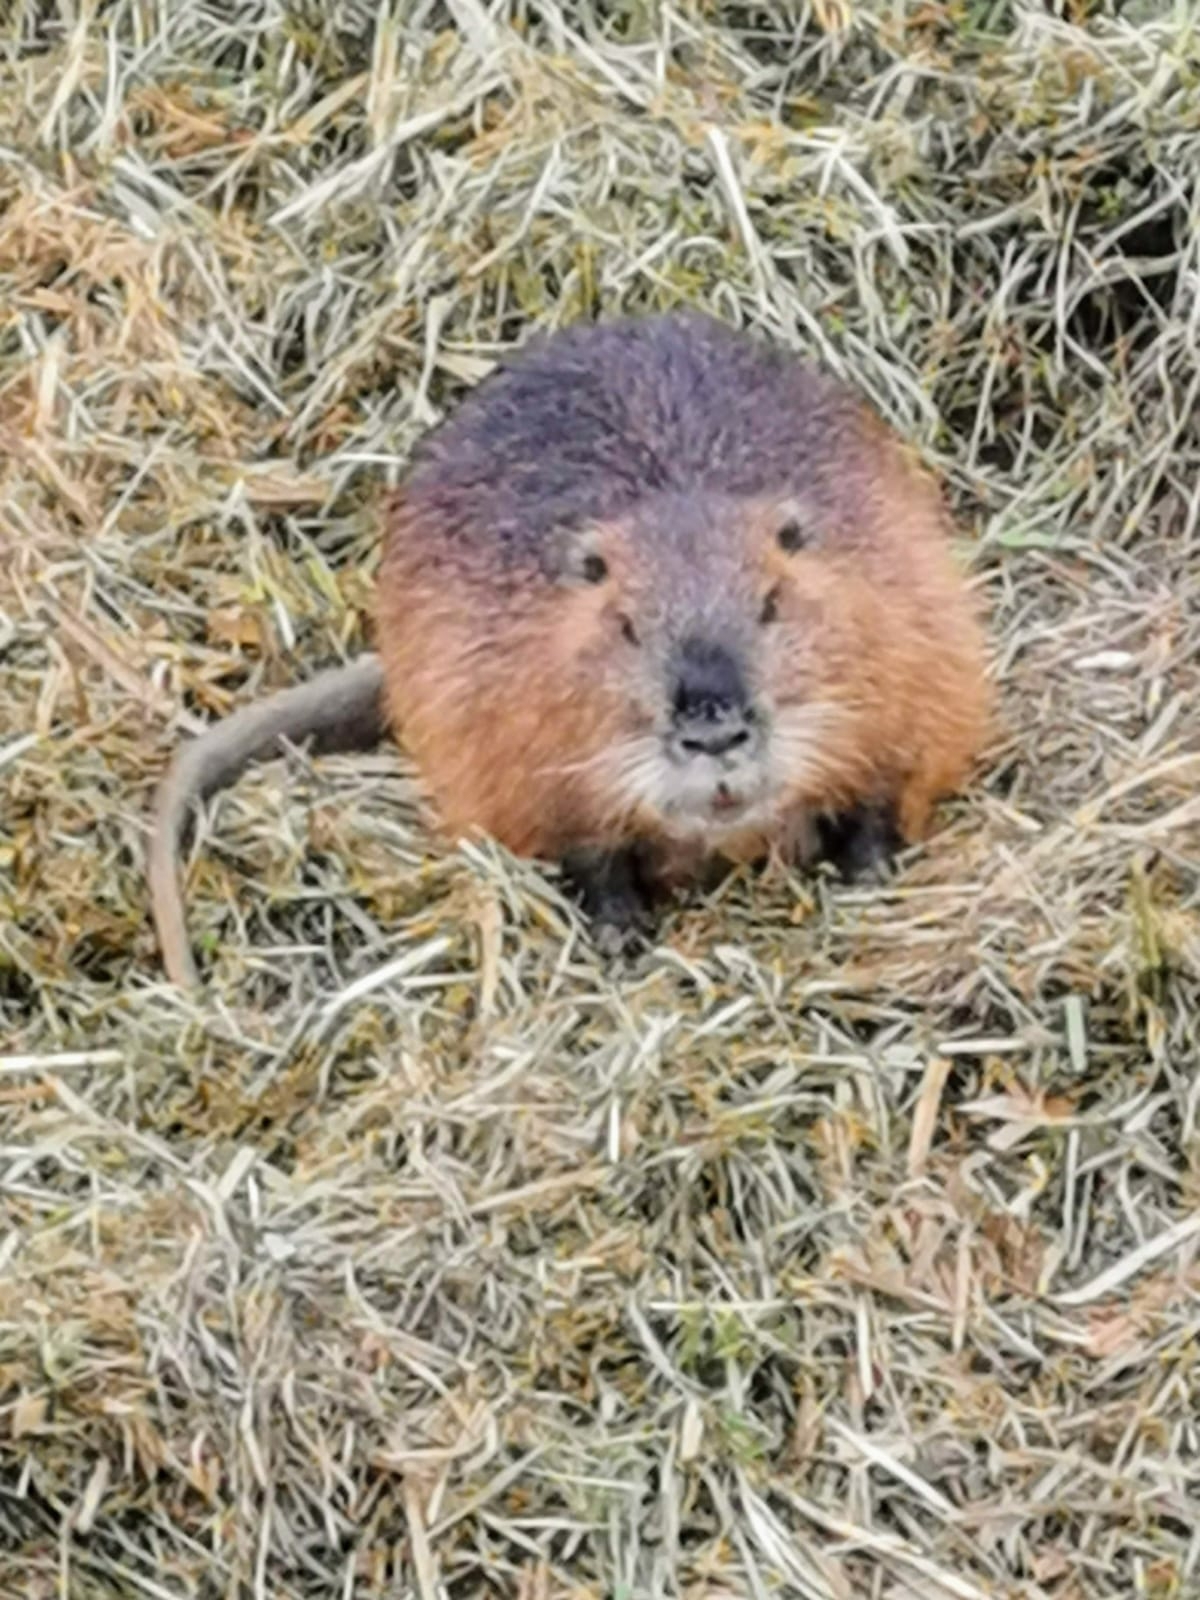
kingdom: Animalia
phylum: Chordata
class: Mammalia
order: Rodentia
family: Myocastoridae
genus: Myocastor
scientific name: Myocastor coypus
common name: Coypu
